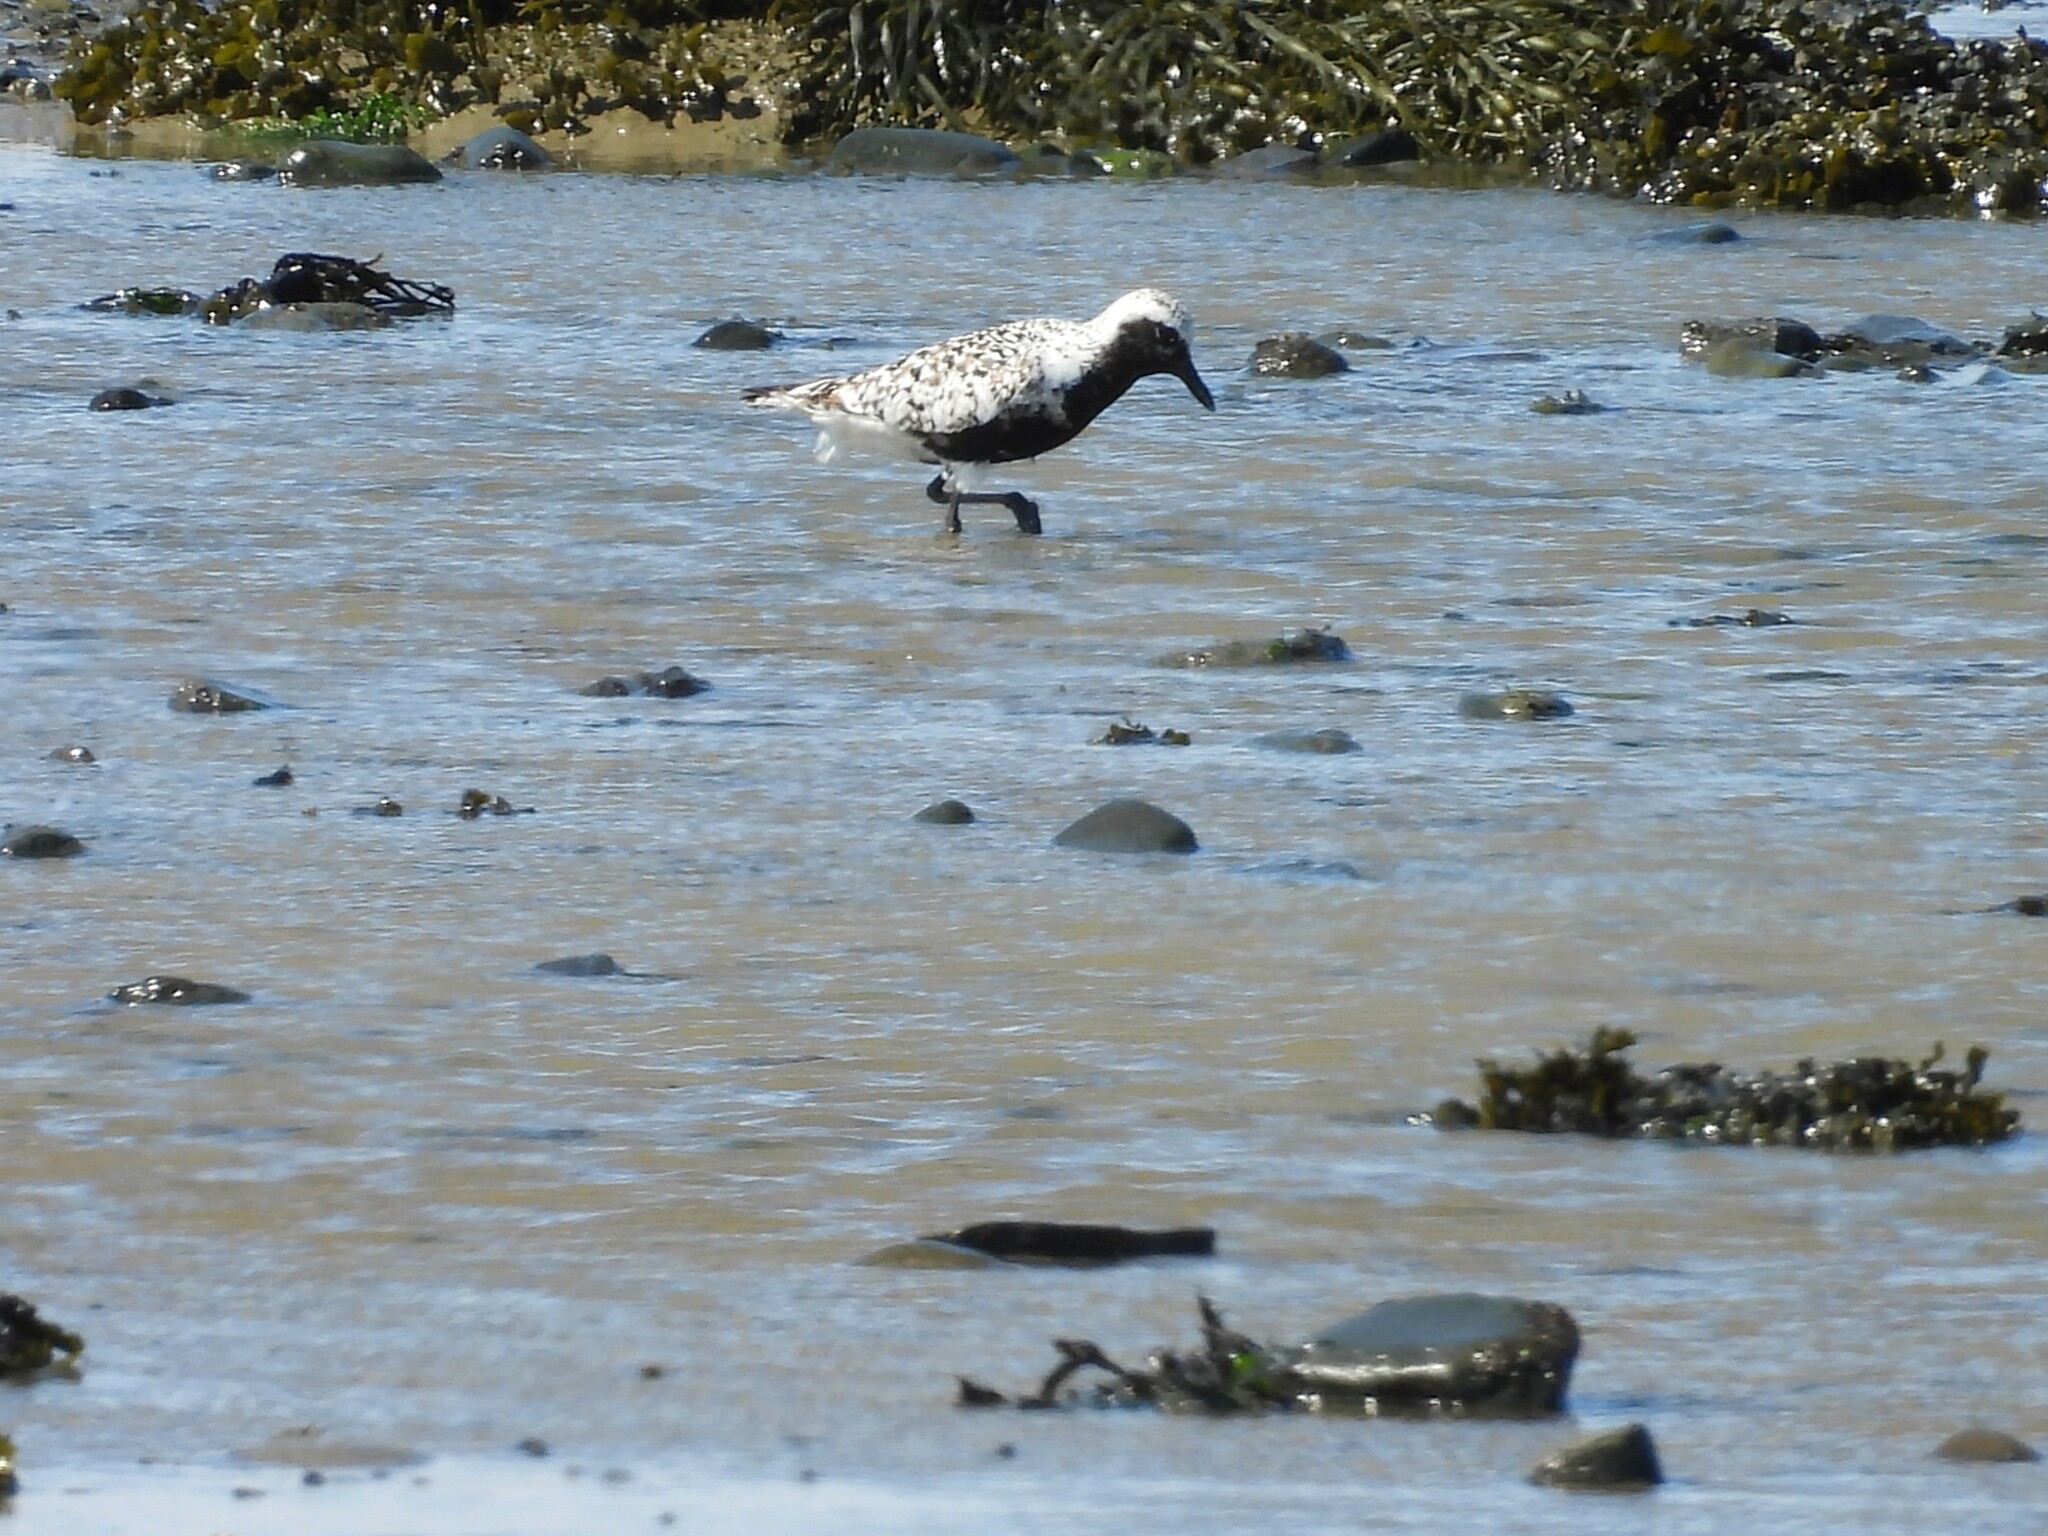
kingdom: Animalia
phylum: Chordata
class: Aves
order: Charadriiformes
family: Charadriidae
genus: Pluvialis
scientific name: Pluvialis squatarola
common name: Grey plover
